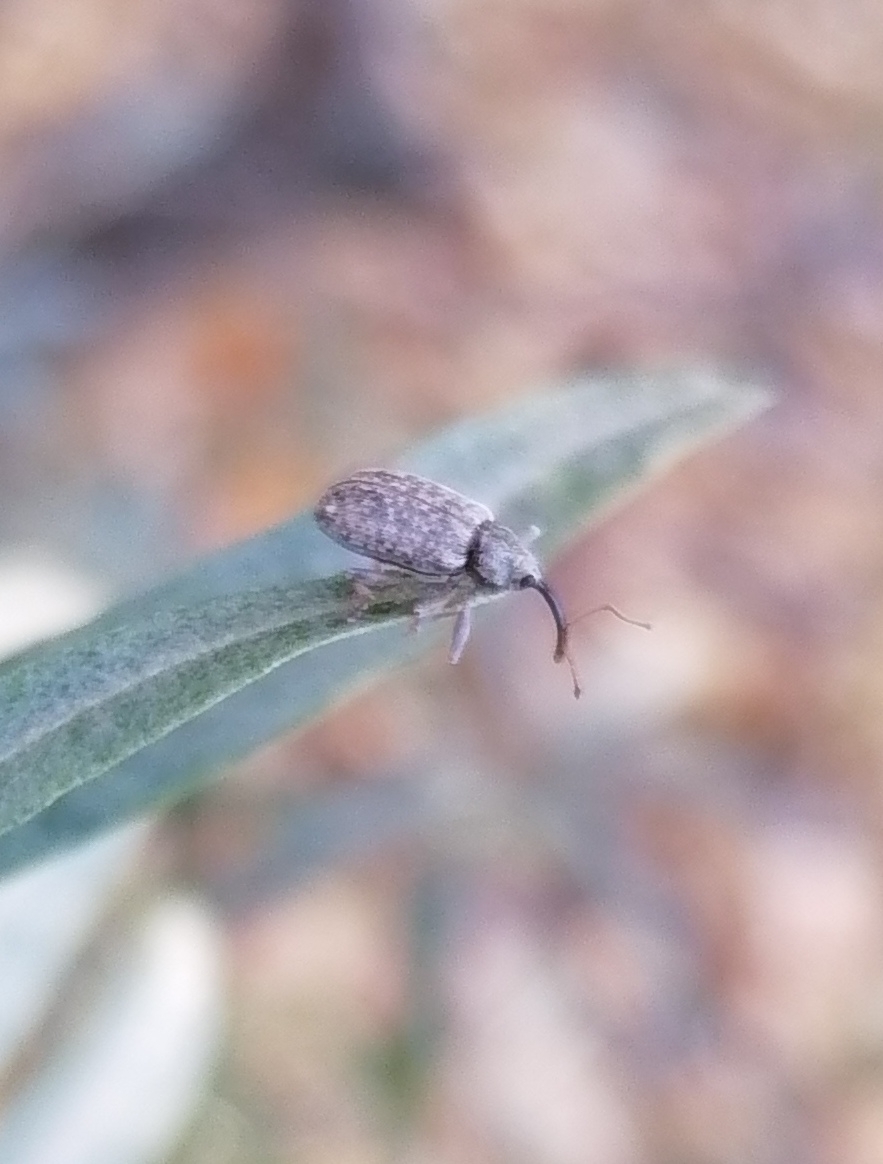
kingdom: Animalia
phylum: Arthropoda
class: Insecta
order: Coleoptera
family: Curculionidae
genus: Dorytomus
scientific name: Dorytomus longimanus
